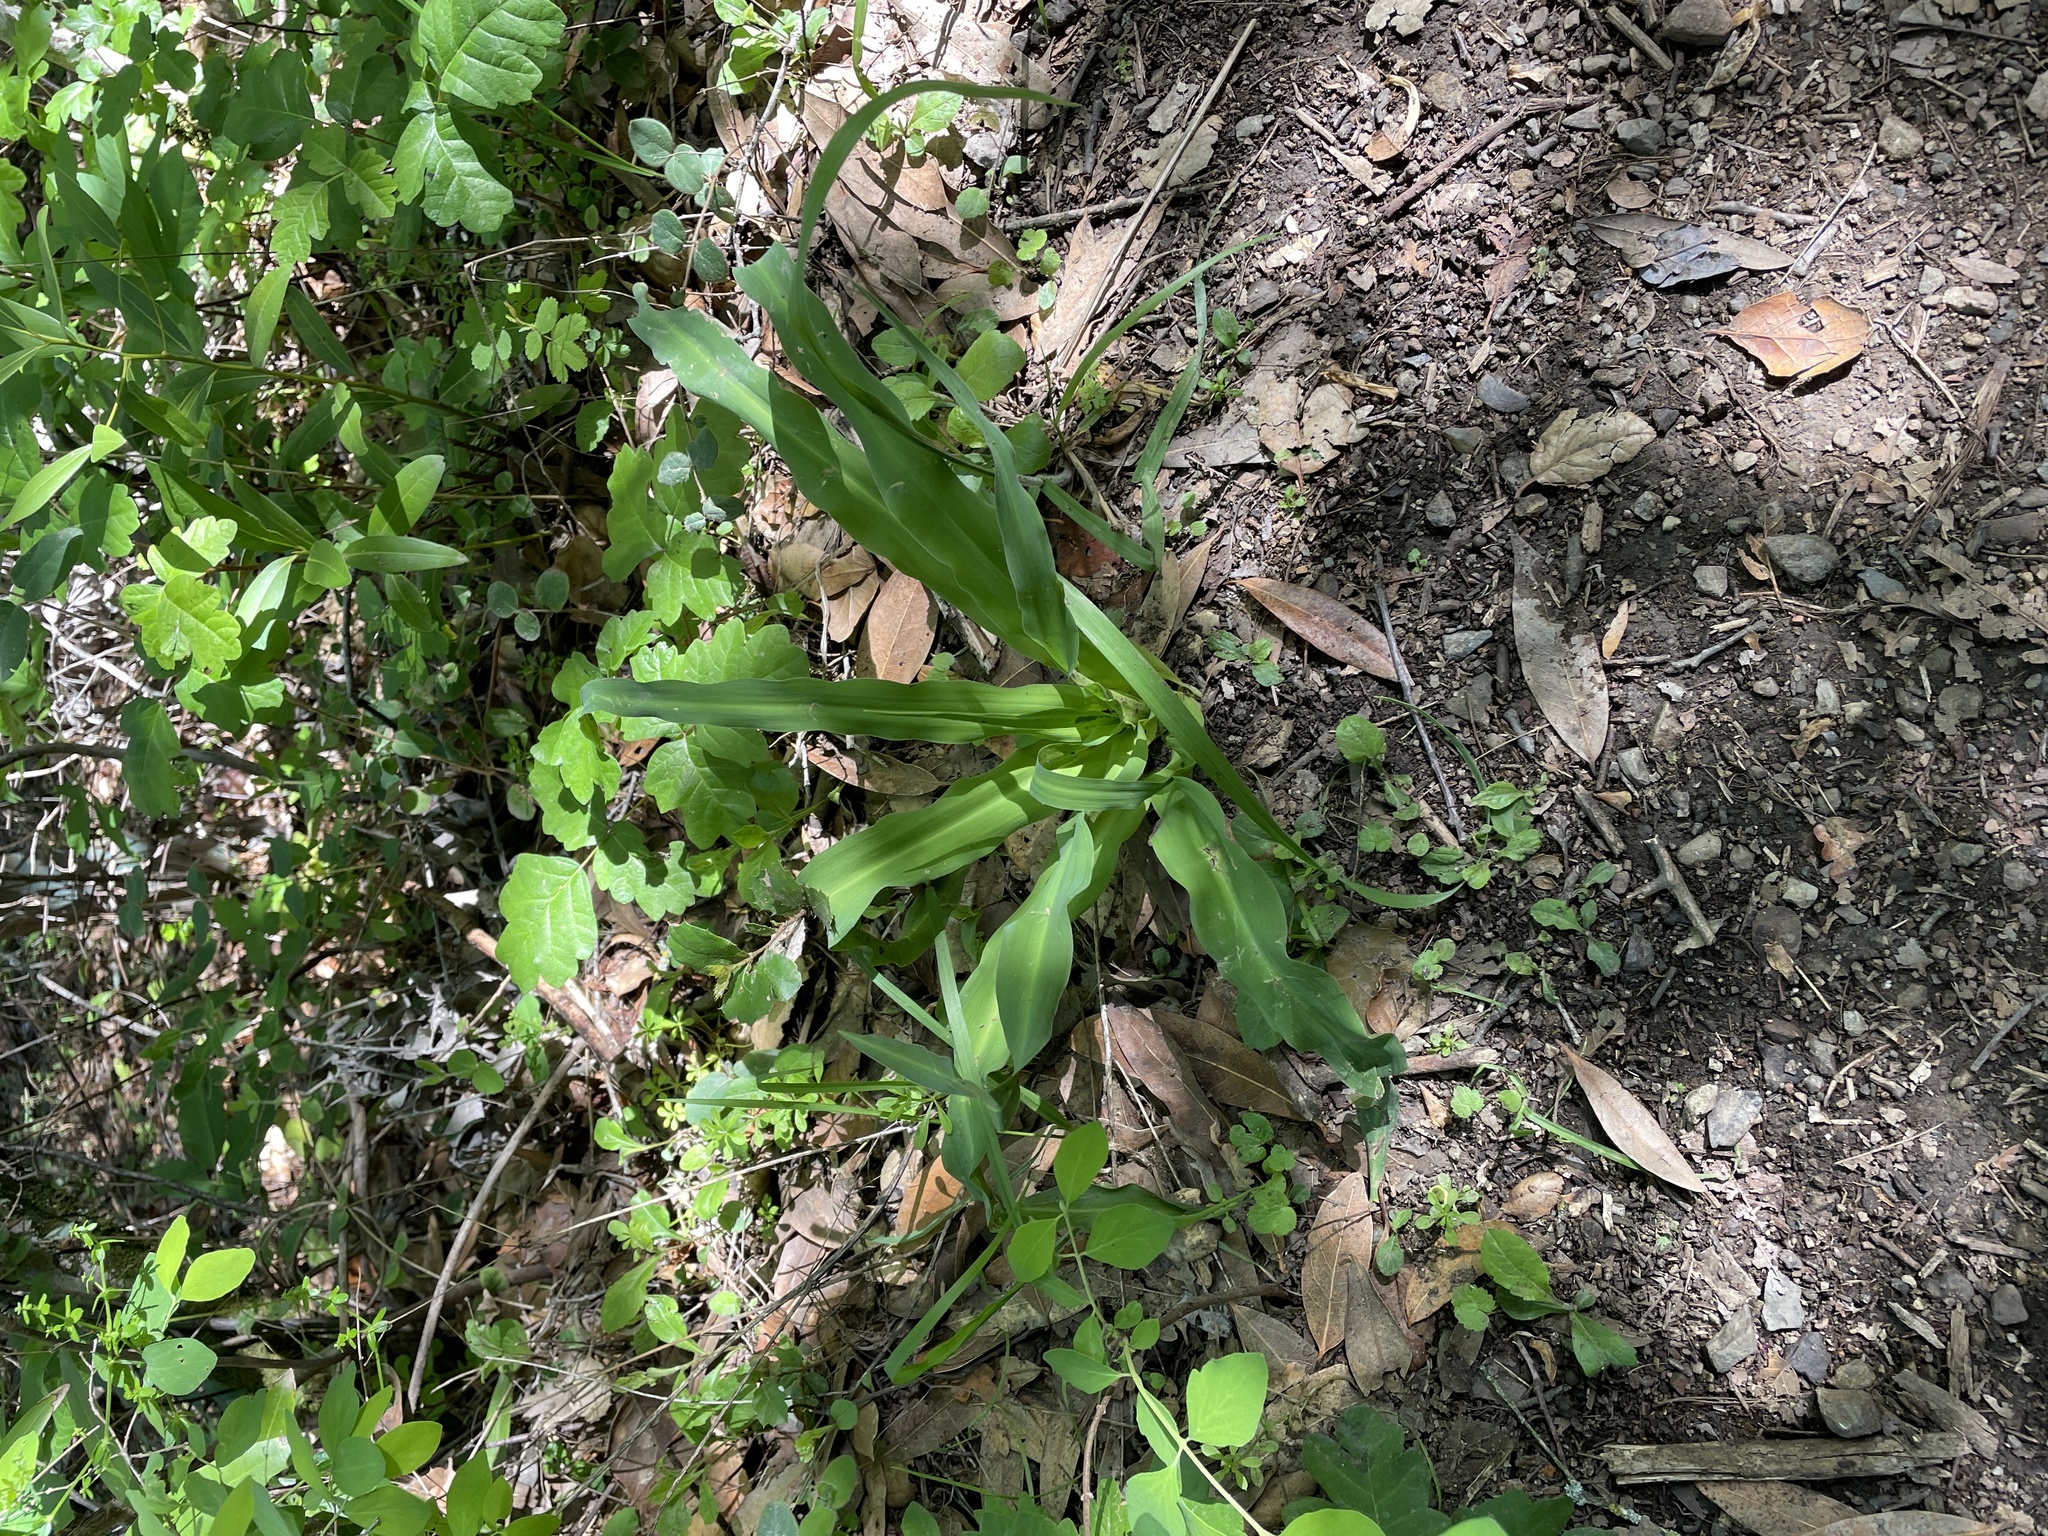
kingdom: Plantae
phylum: Tracheophyta
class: Liliopsida
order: Asparagales
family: Asparagaceae
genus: Chlorogalum
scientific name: Chlorogalum pomeridianum
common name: Amole
